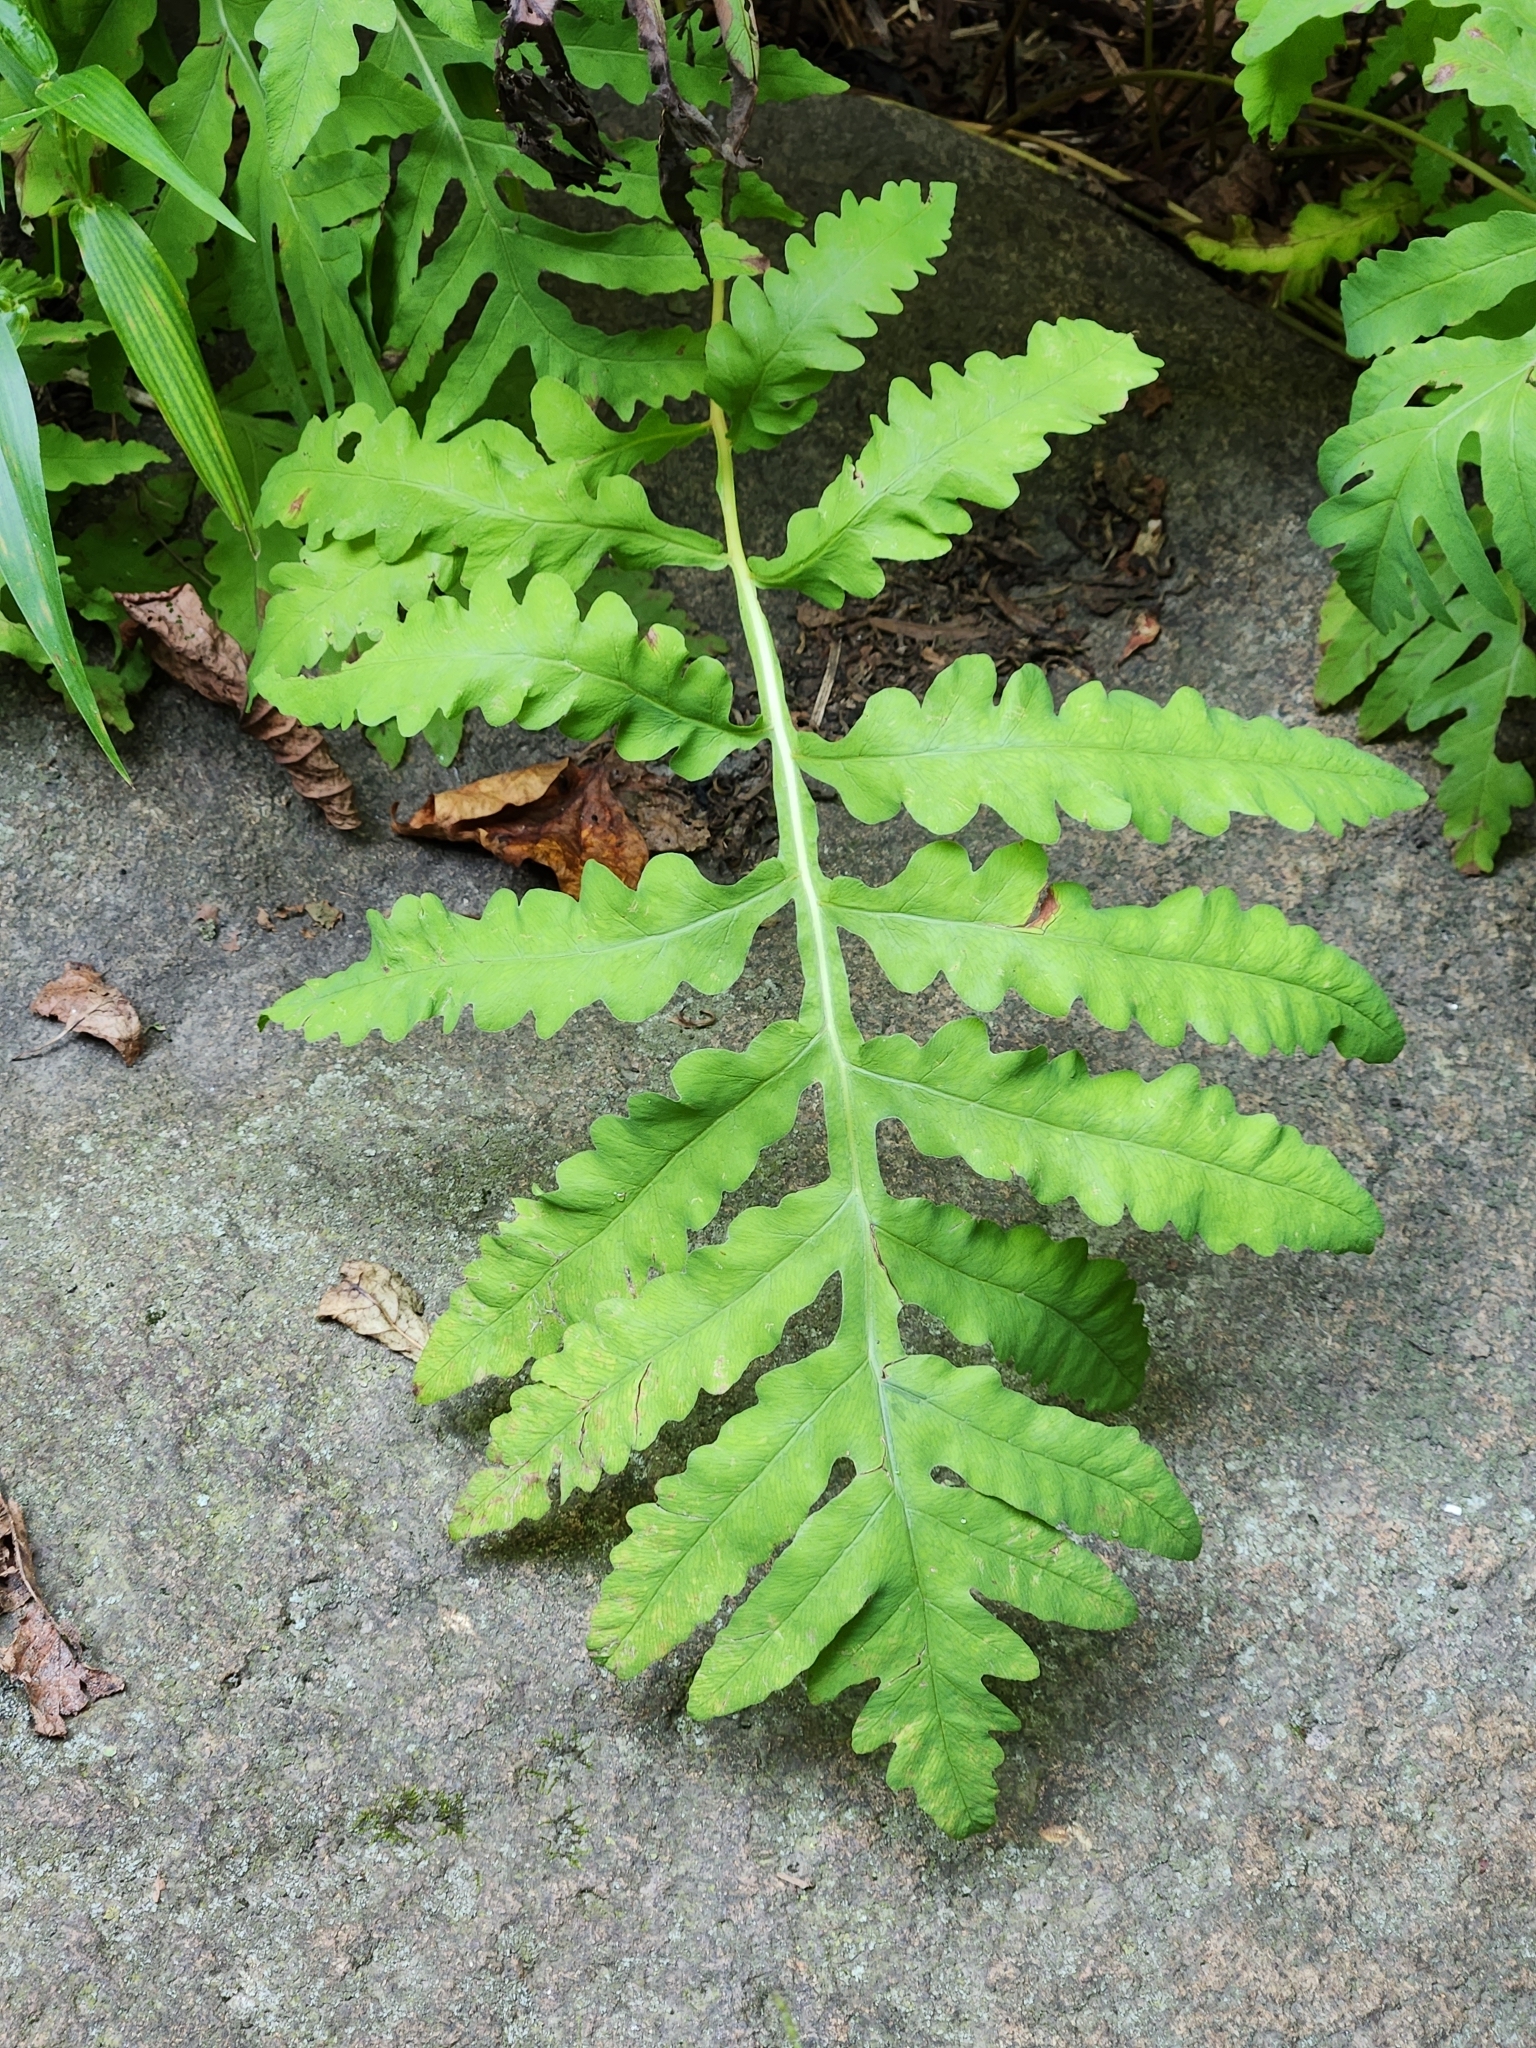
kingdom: Plantae
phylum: Tracheophyta
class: Polypodiopsida
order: Polypodiales
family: Onocleaceae
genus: Onoclea
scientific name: Onoclea sensibilis
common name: Sensitive fern
